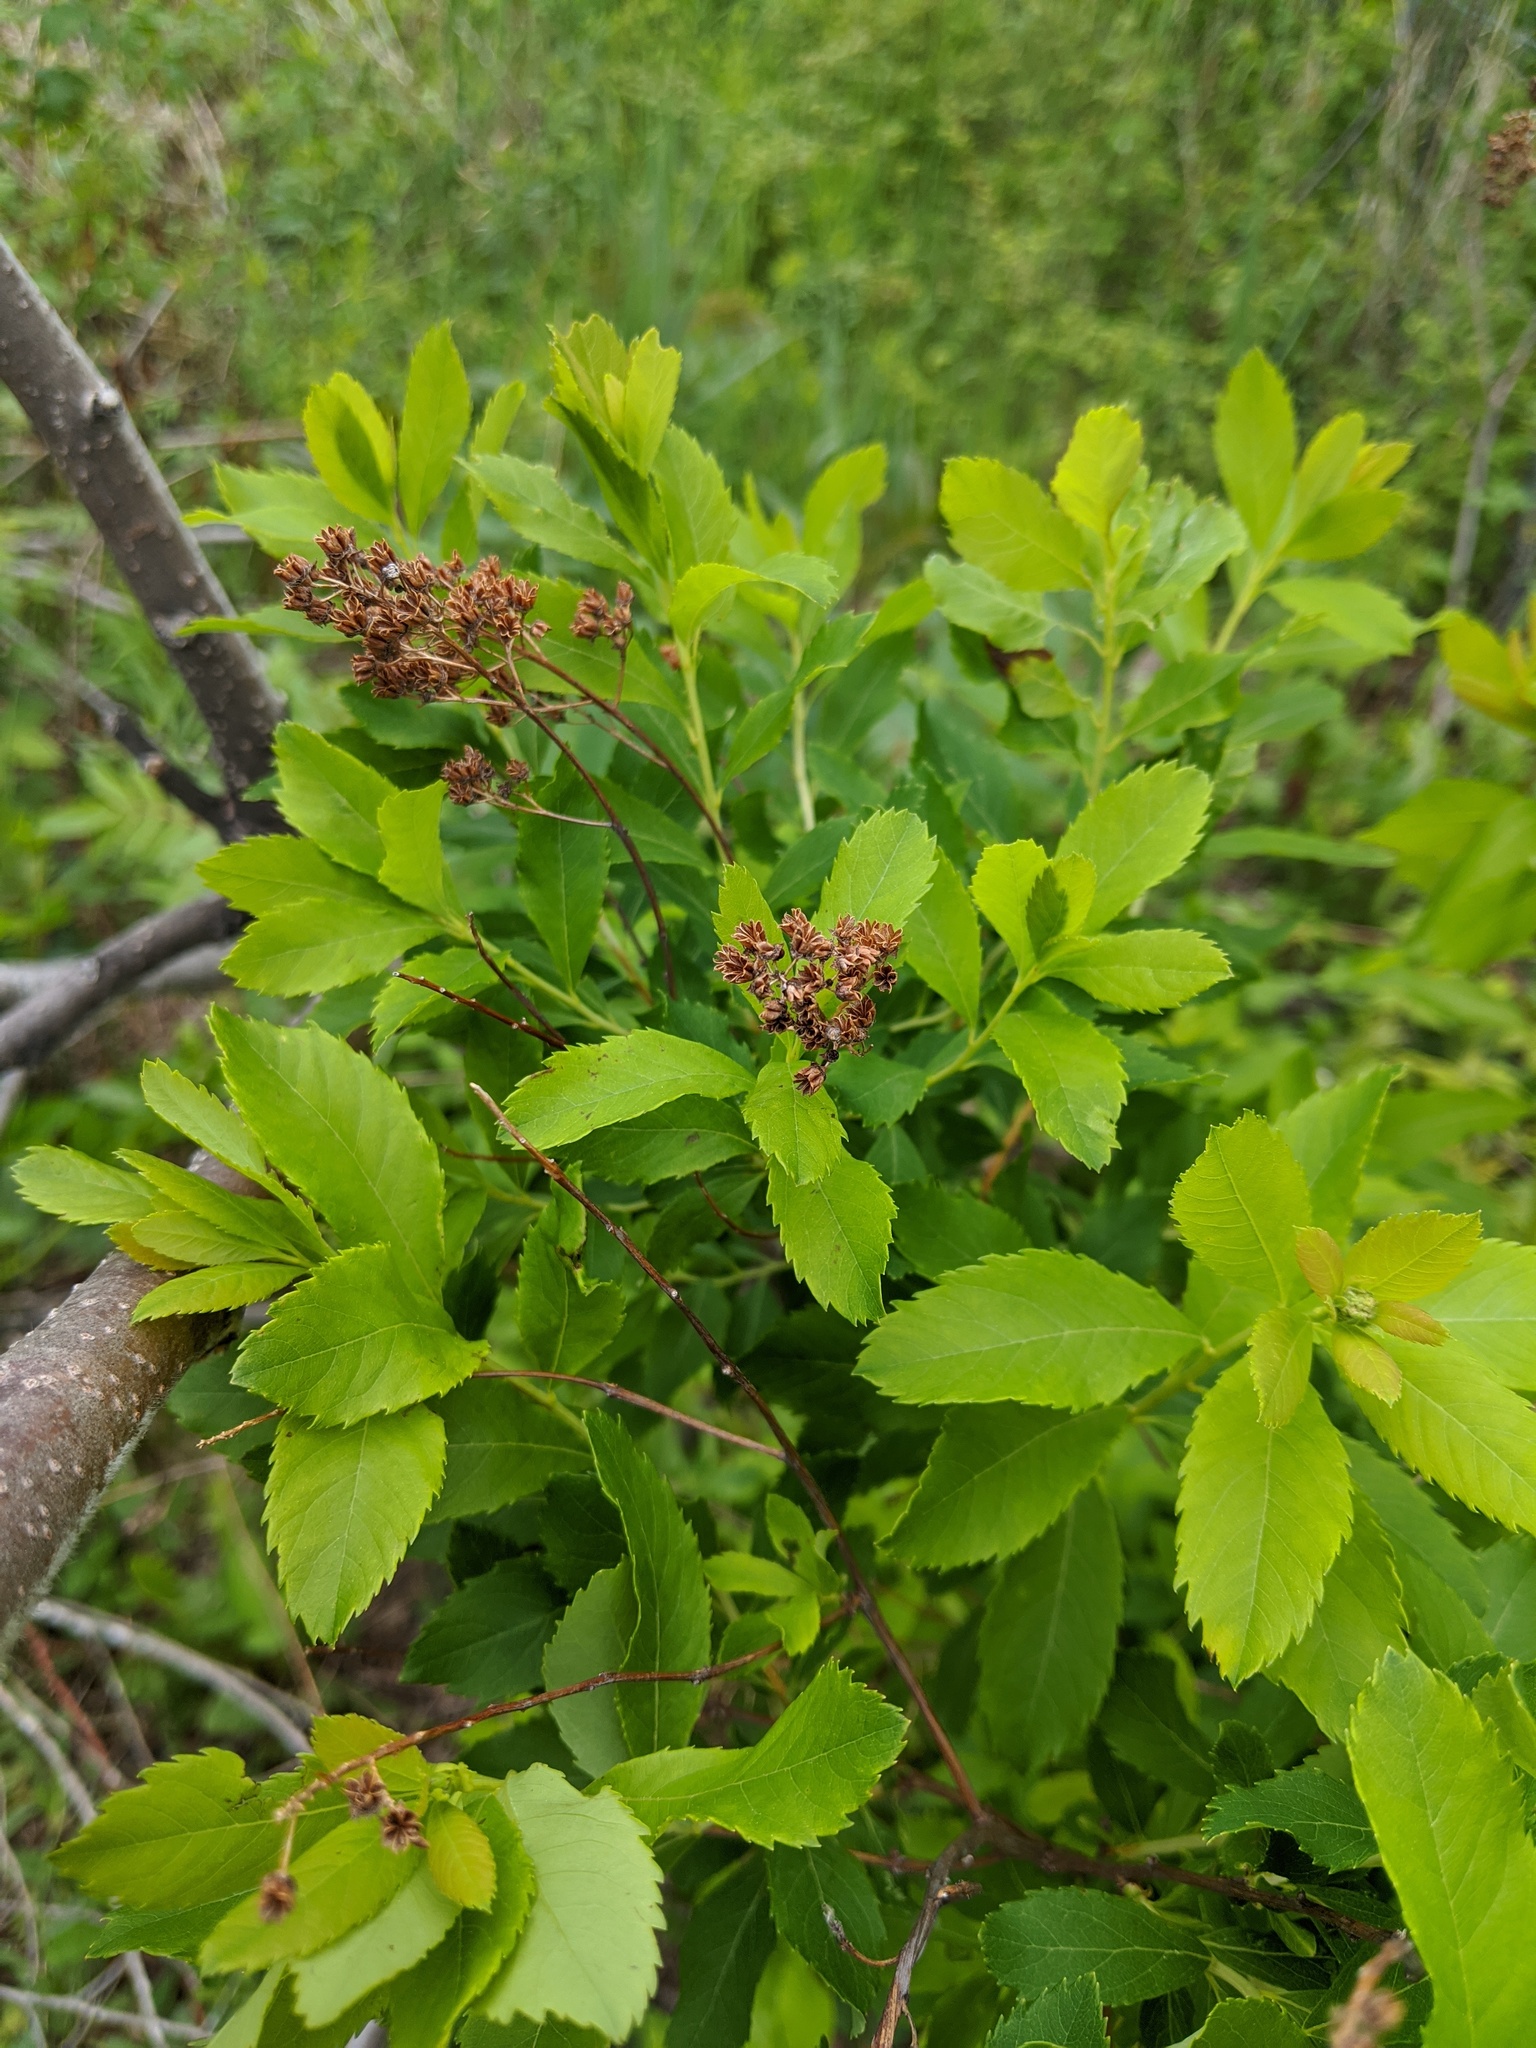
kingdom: Plantae
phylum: Tracheophyta
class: Magnoliopsida
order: Rosales
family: Rosaceae
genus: Spiraea
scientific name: Spiraea alba
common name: Pale bridewort
